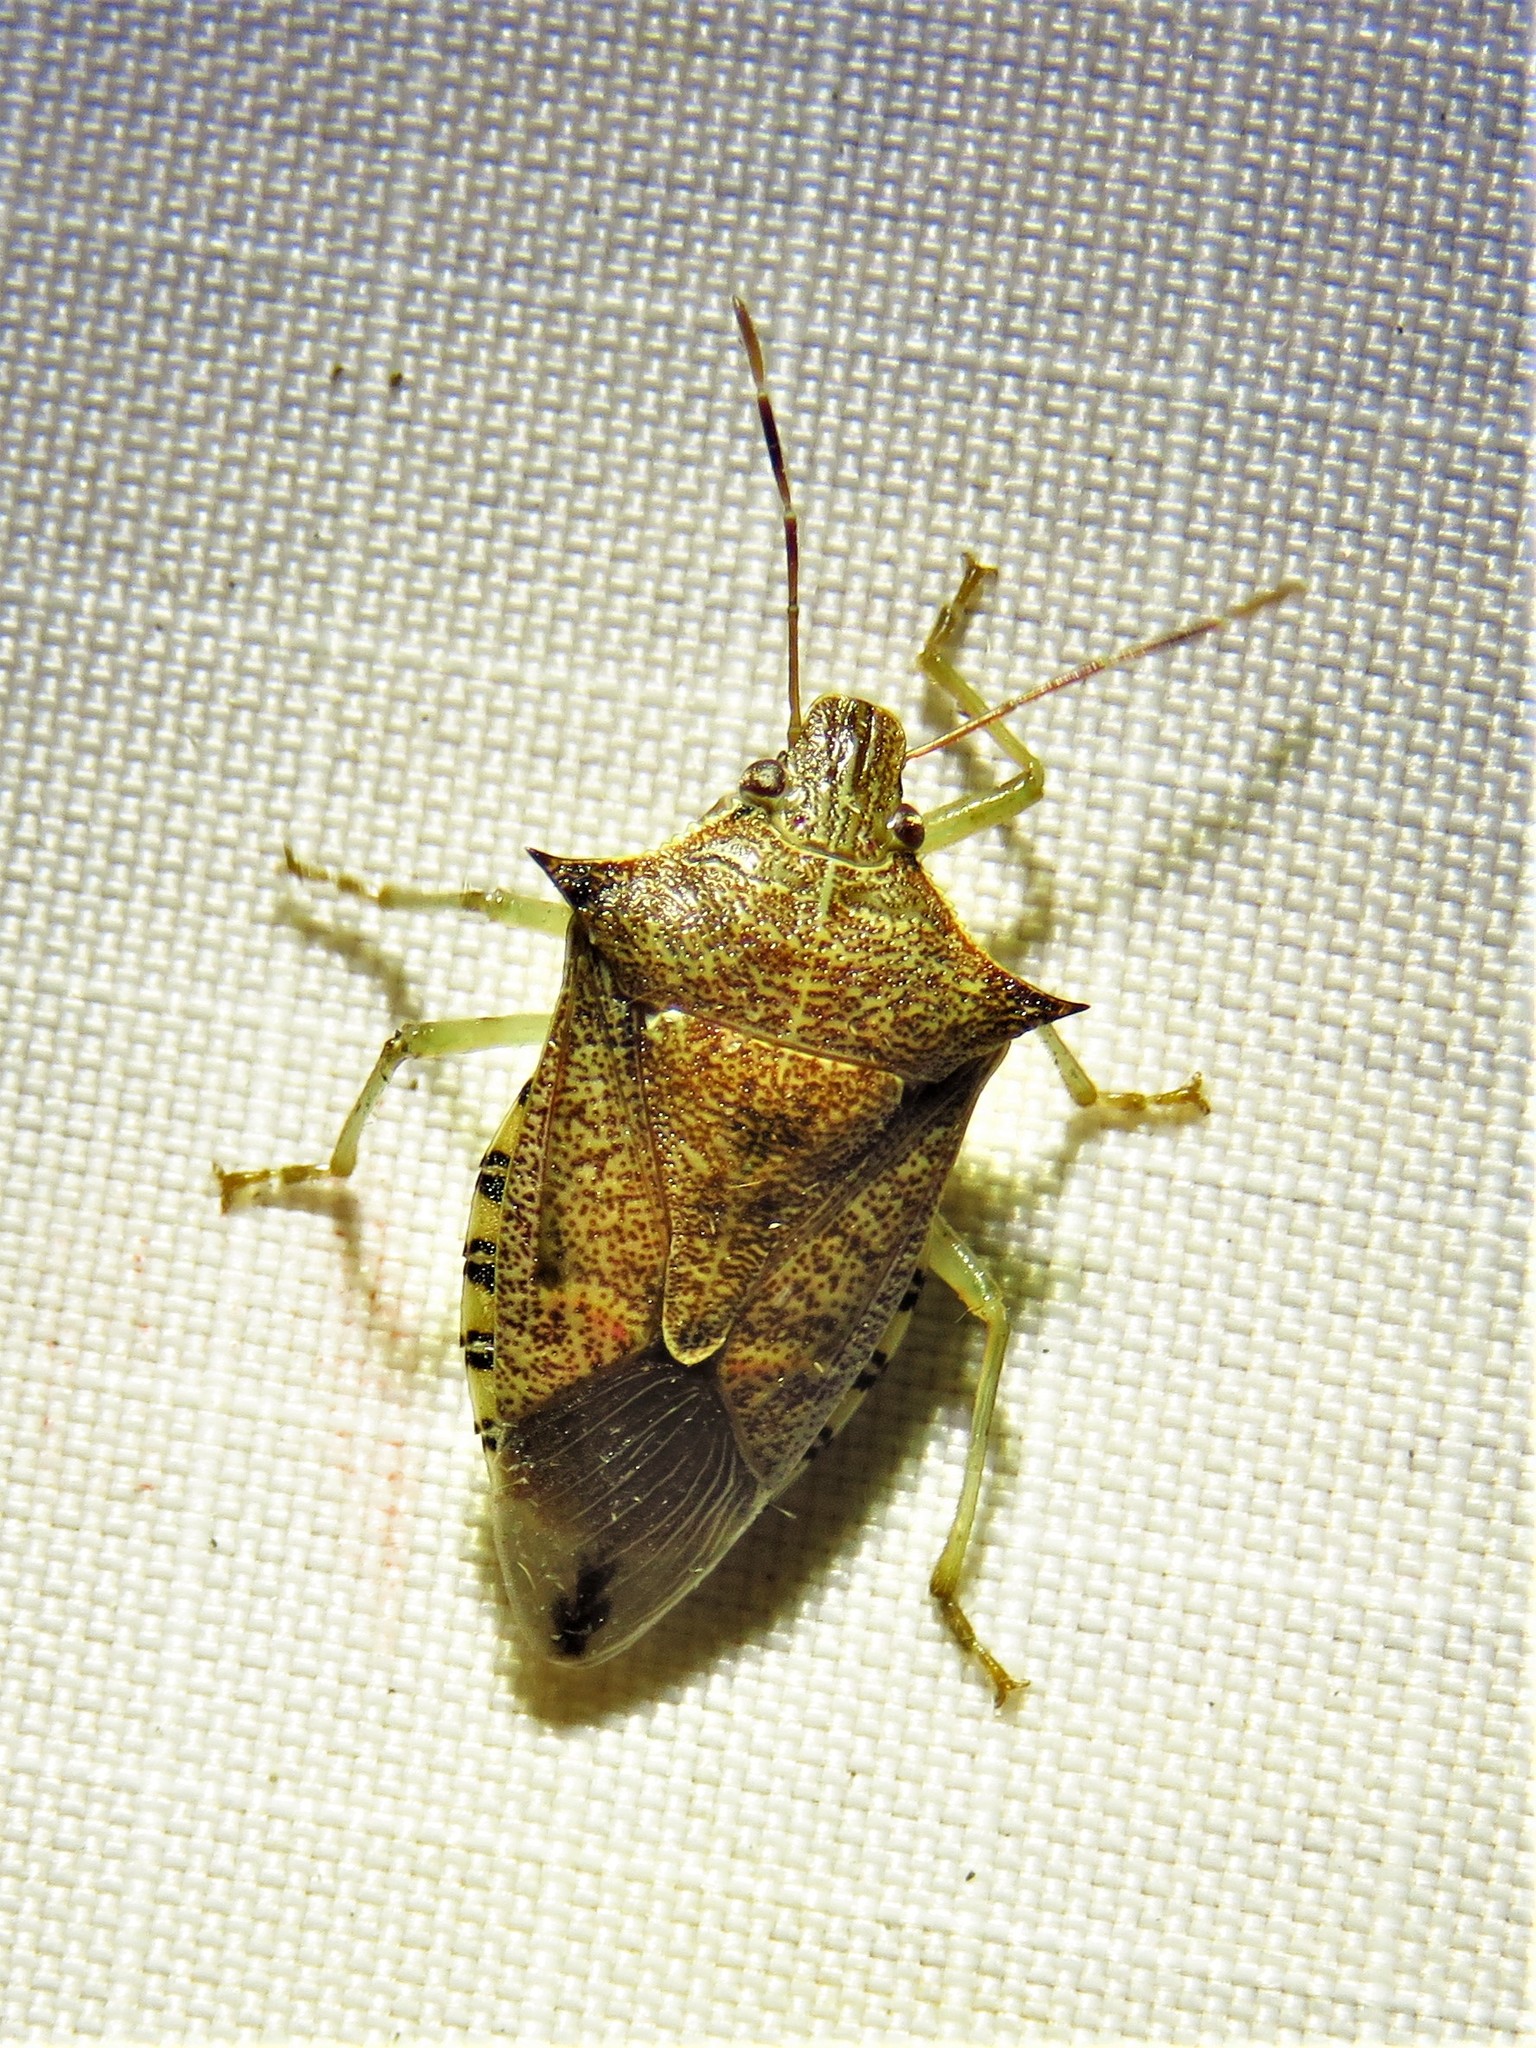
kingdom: Animalia
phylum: Arthropoda
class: Insecta
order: Hemiptera
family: Pentatomidae
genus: Podisus
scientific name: Podisus maculiventris
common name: Spined soldier bug
